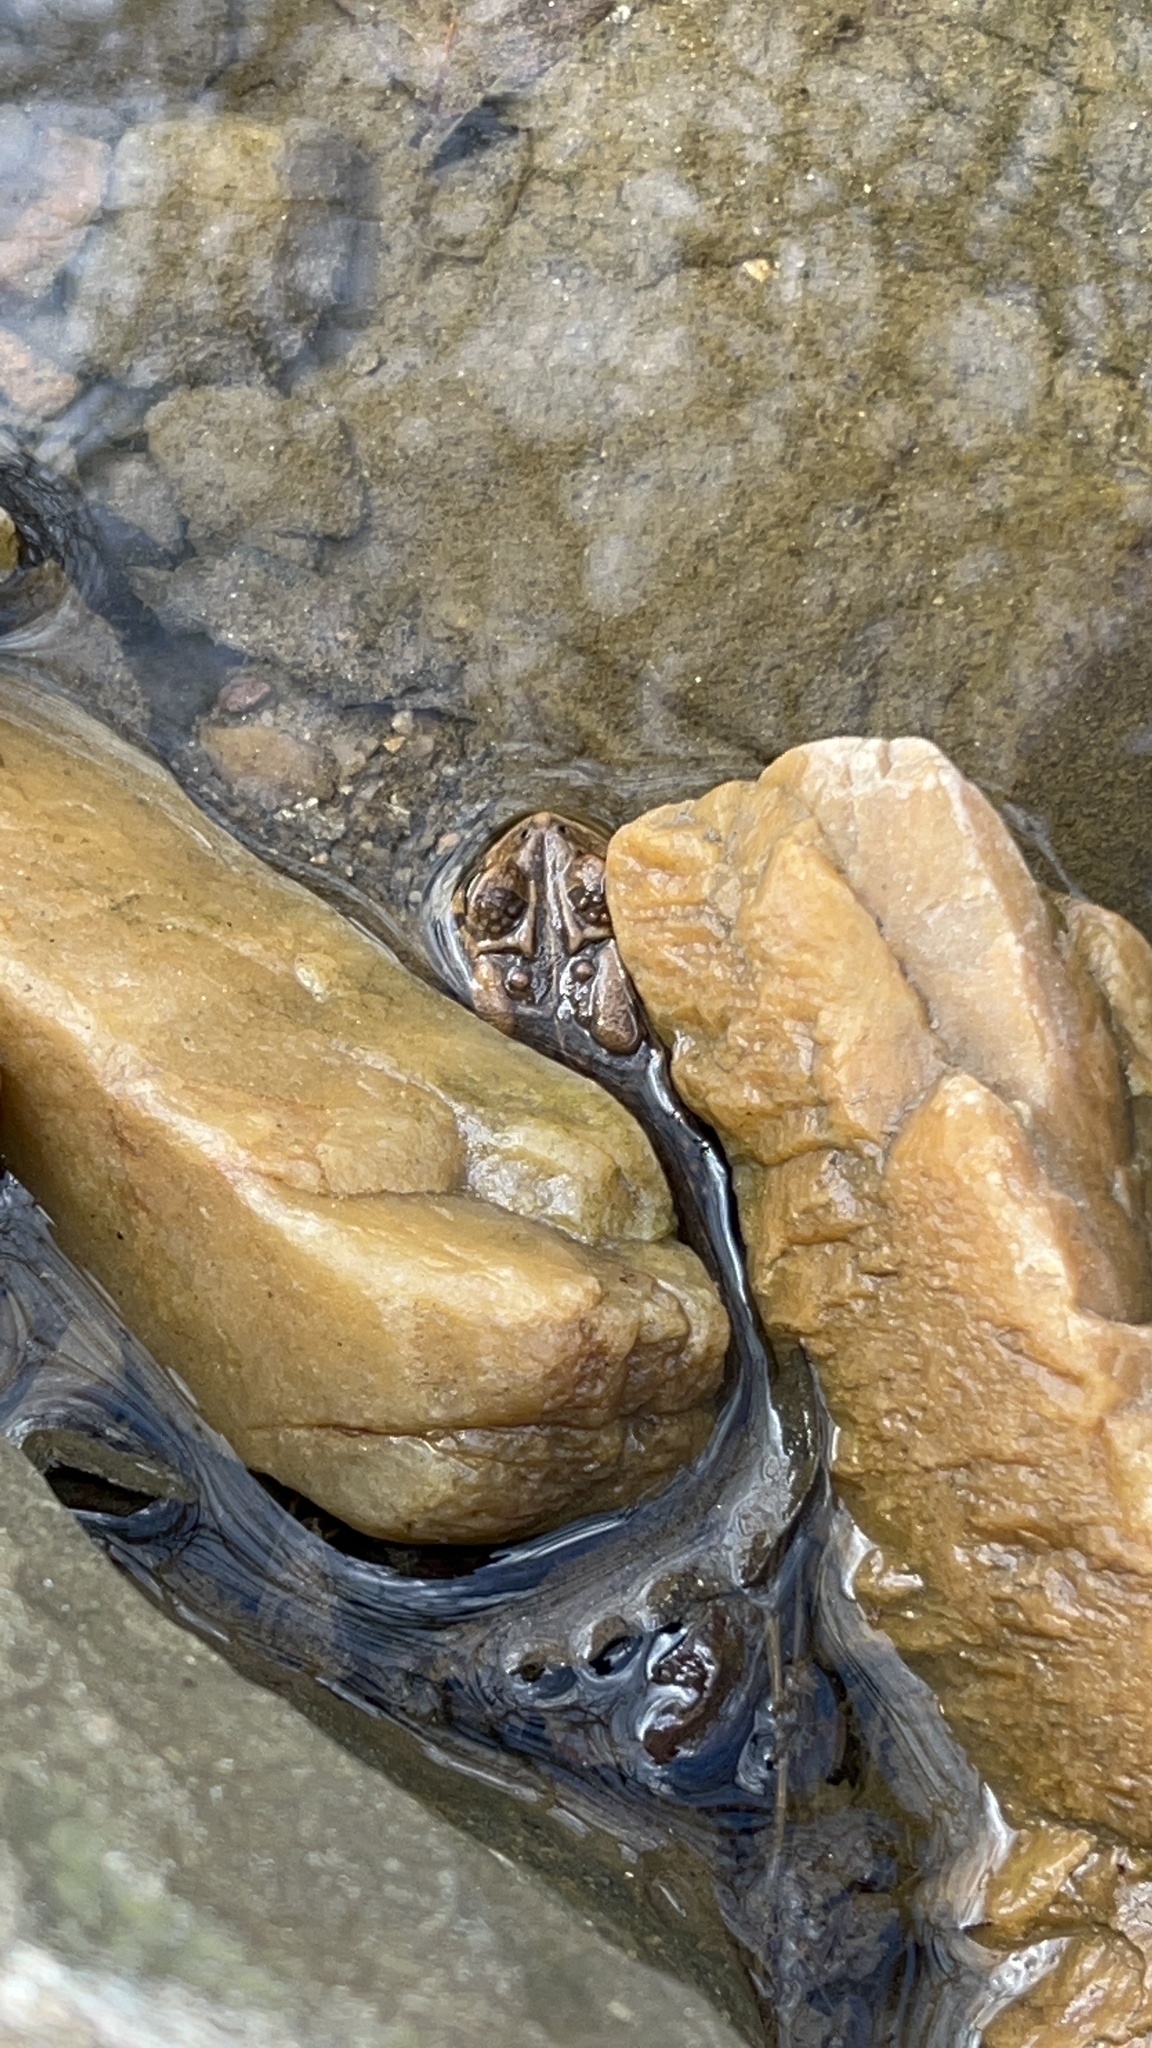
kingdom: Animalia
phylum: Chordata
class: Amphibia
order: Anura
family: Bufonidae
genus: Anaxyrus
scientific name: Anaxyrus americanus
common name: American toad
